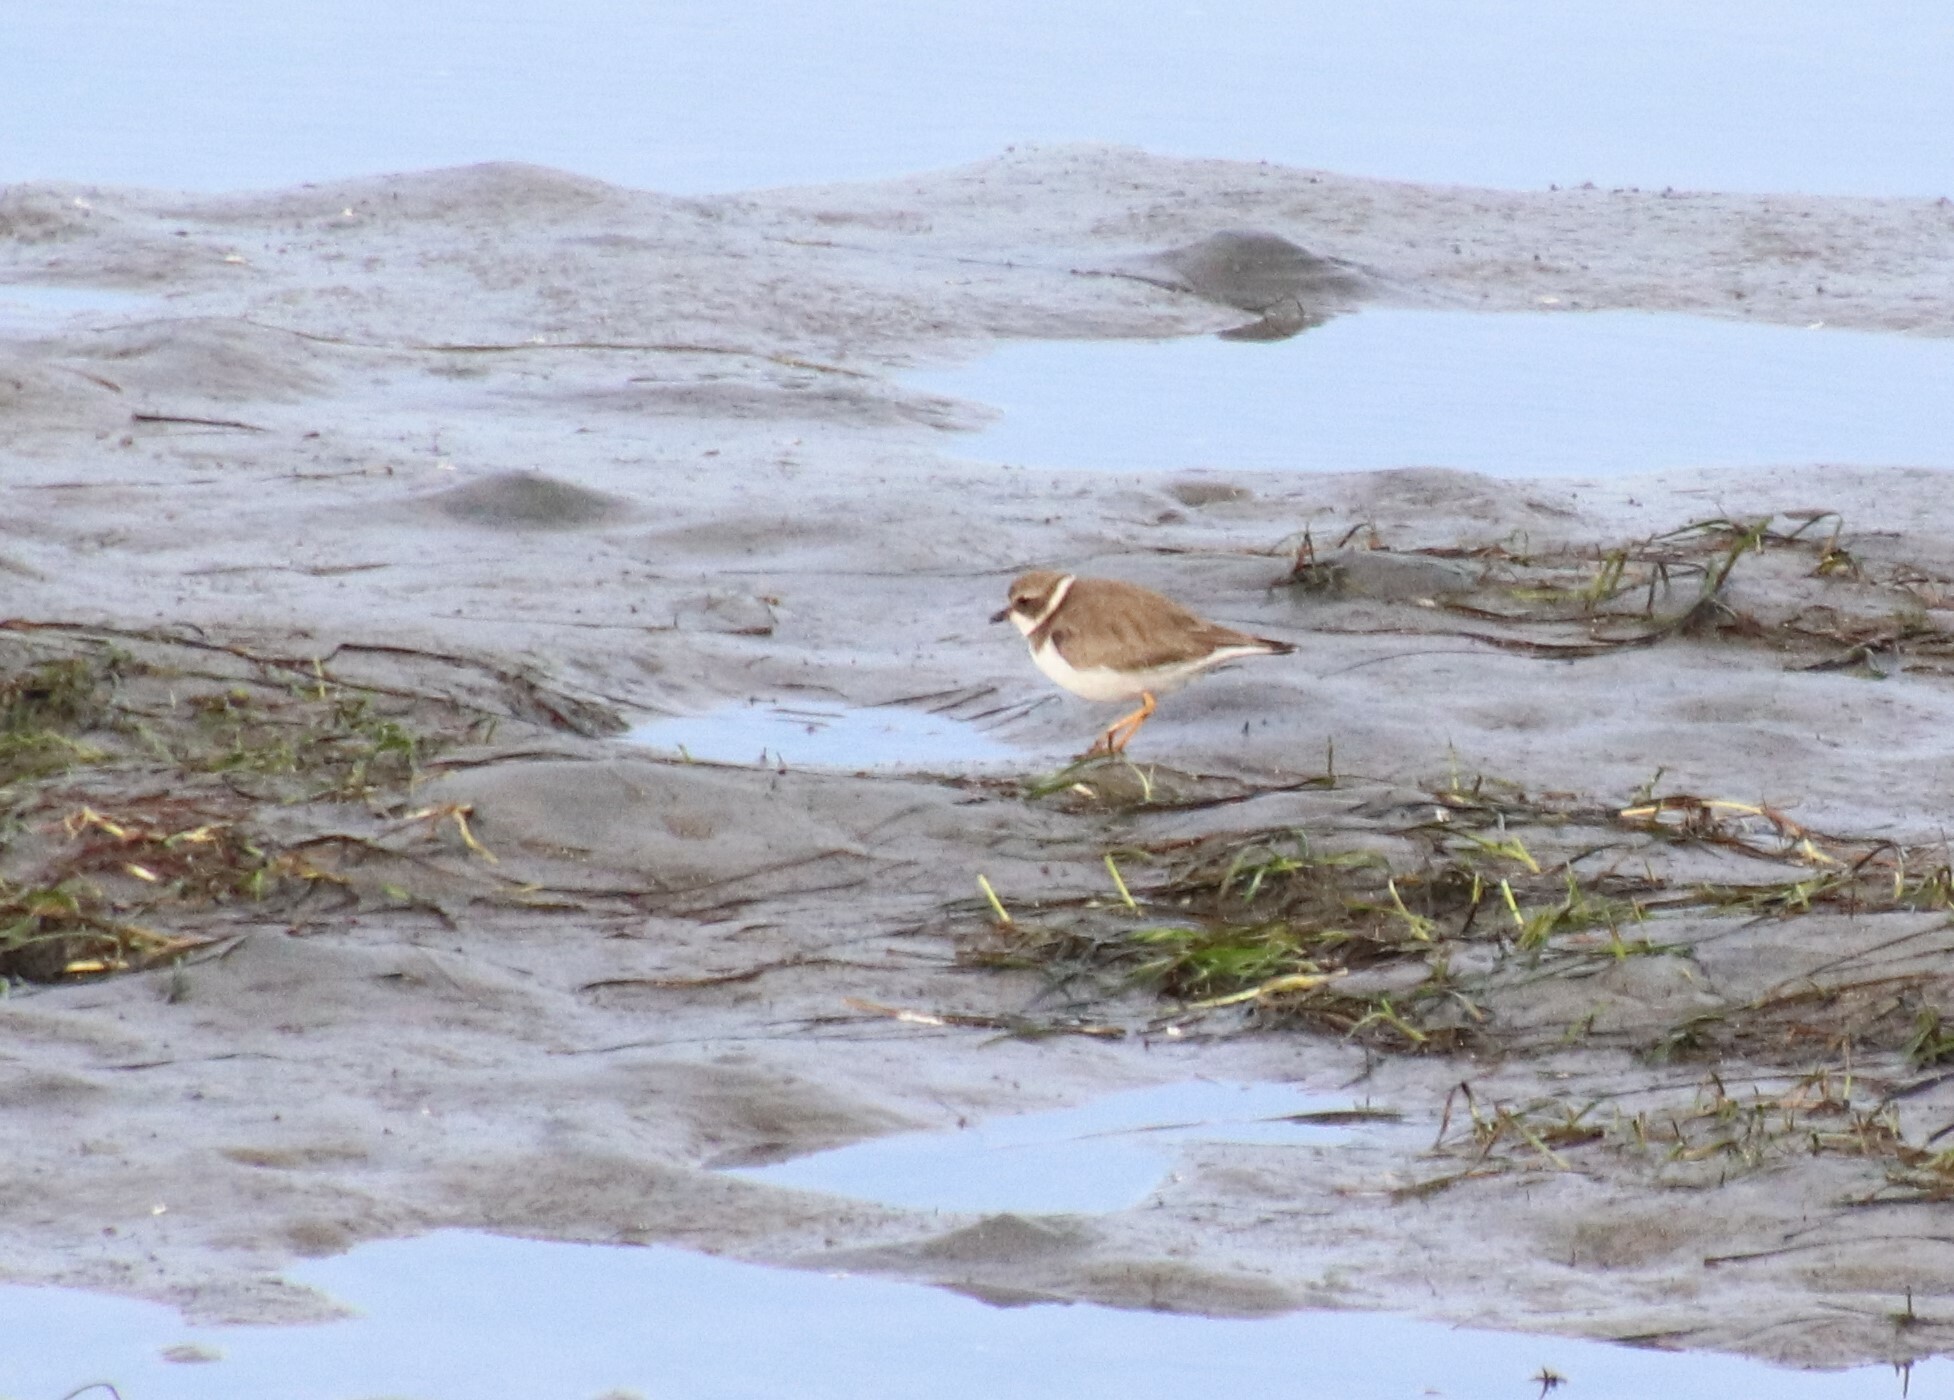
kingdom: Animalia
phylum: Chordata
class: Aves
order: Charadriiformes
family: Charadriidae
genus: Charadrius
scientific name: Charadrius semipalmatus
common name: Semipalmated plover
